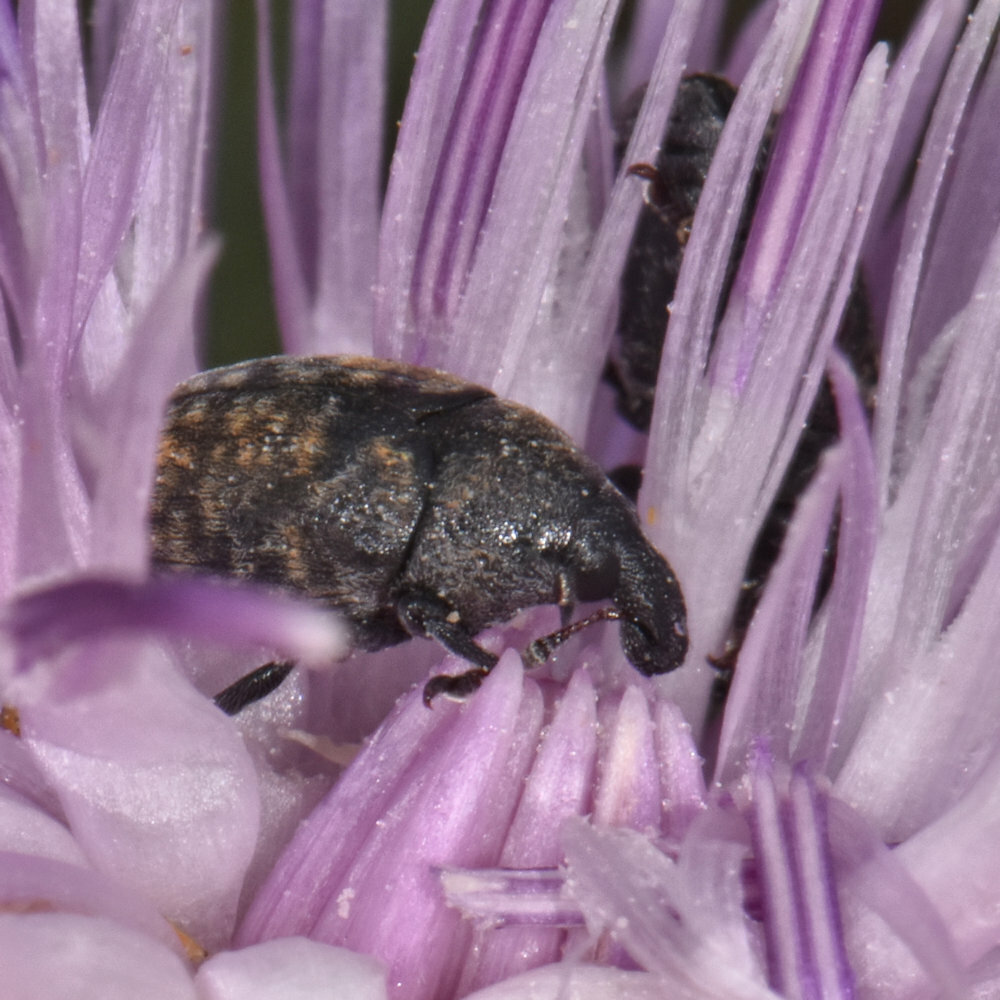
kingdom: Animalia
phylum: Arthropoda
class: Insecta
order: Coleoptera
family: Curculionidae
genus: Larinus
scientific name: Larinus obtusus
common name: Weevil
